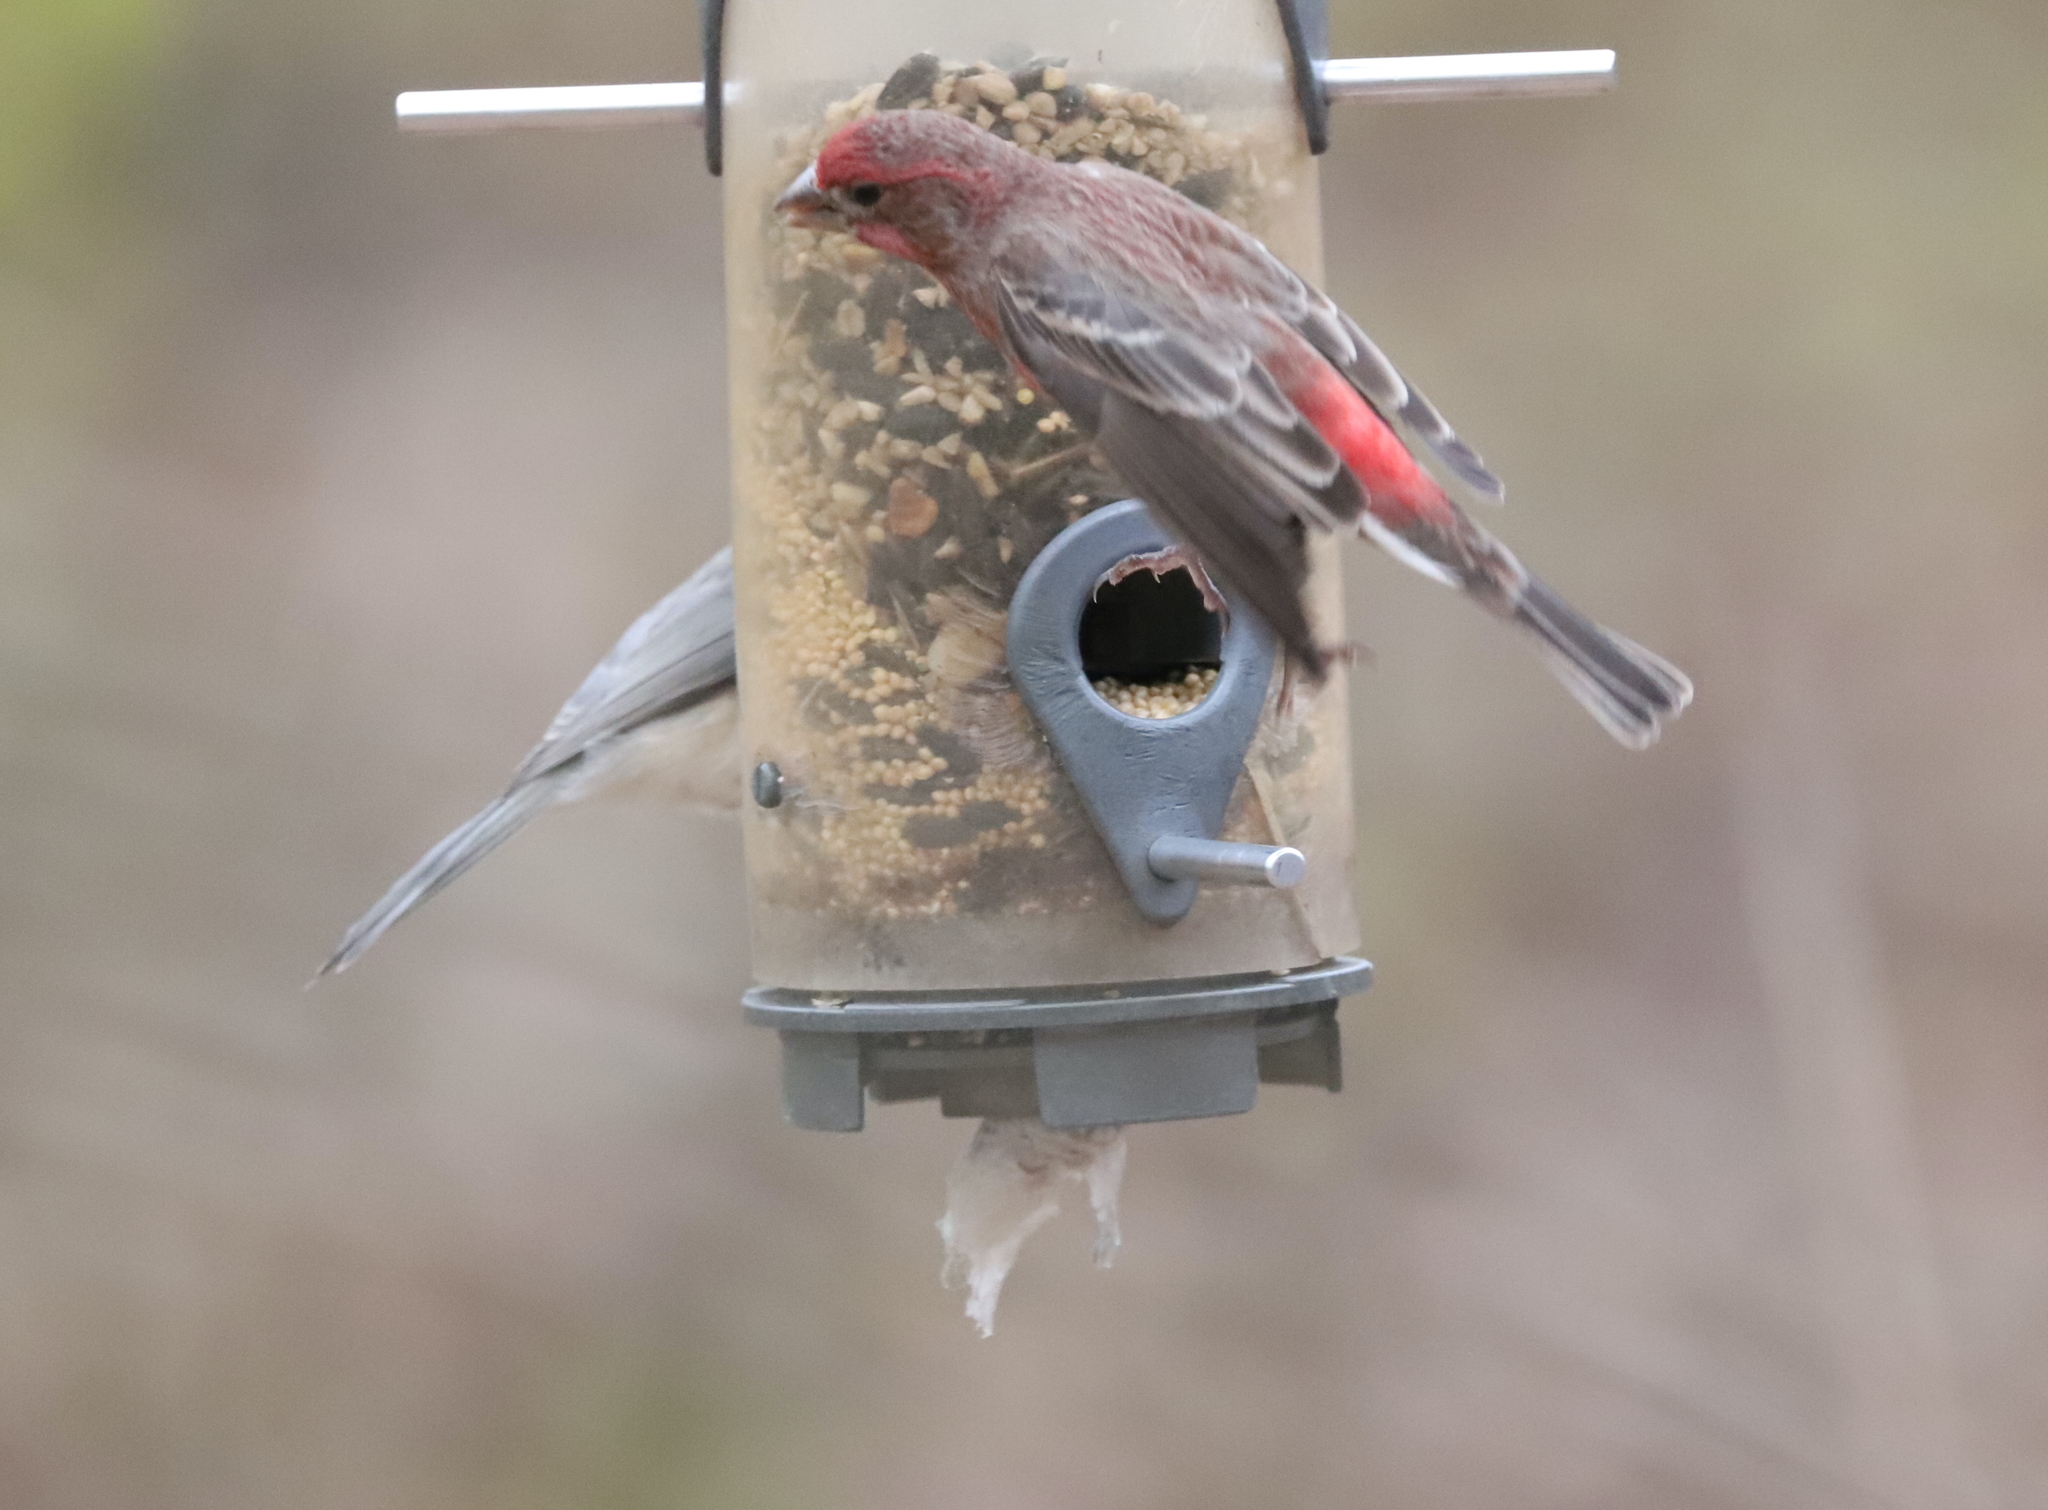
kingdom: Animalia
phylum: Chordata
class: Aves
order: Passeriformes
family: Fringillidae
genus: Haemorhous
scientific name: Haemorhous mexicanus
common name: House finch
